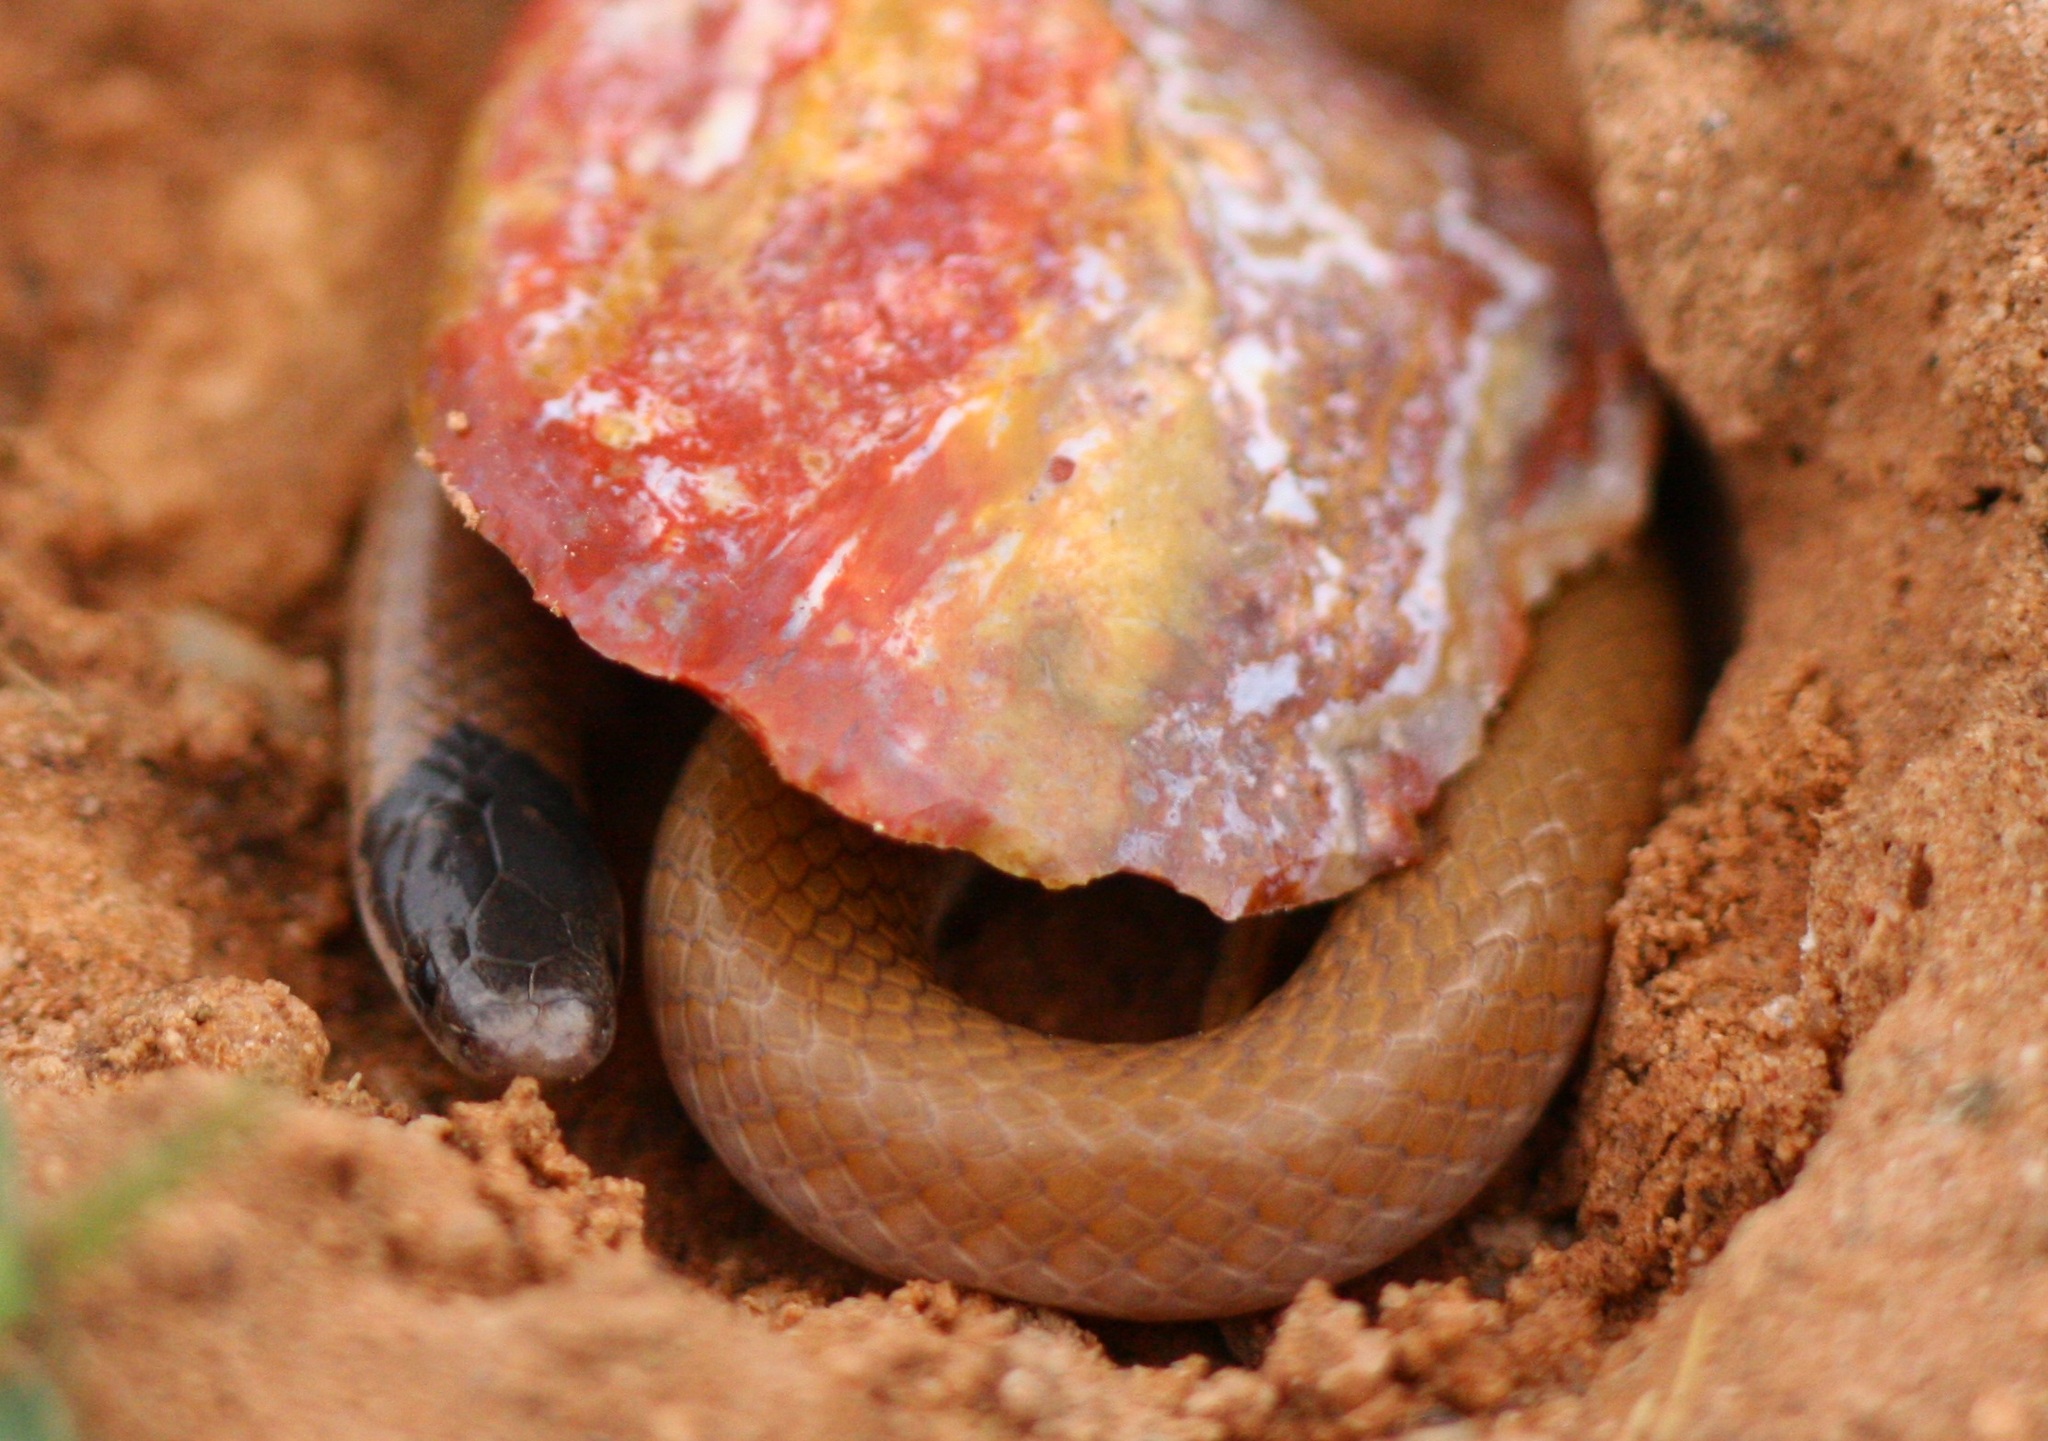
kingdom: Animalia
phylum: Chordata
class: Squamata
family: Colubridae
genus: Tantilla
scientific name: Tantilla nigriceps
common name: Plains blackhead snake
